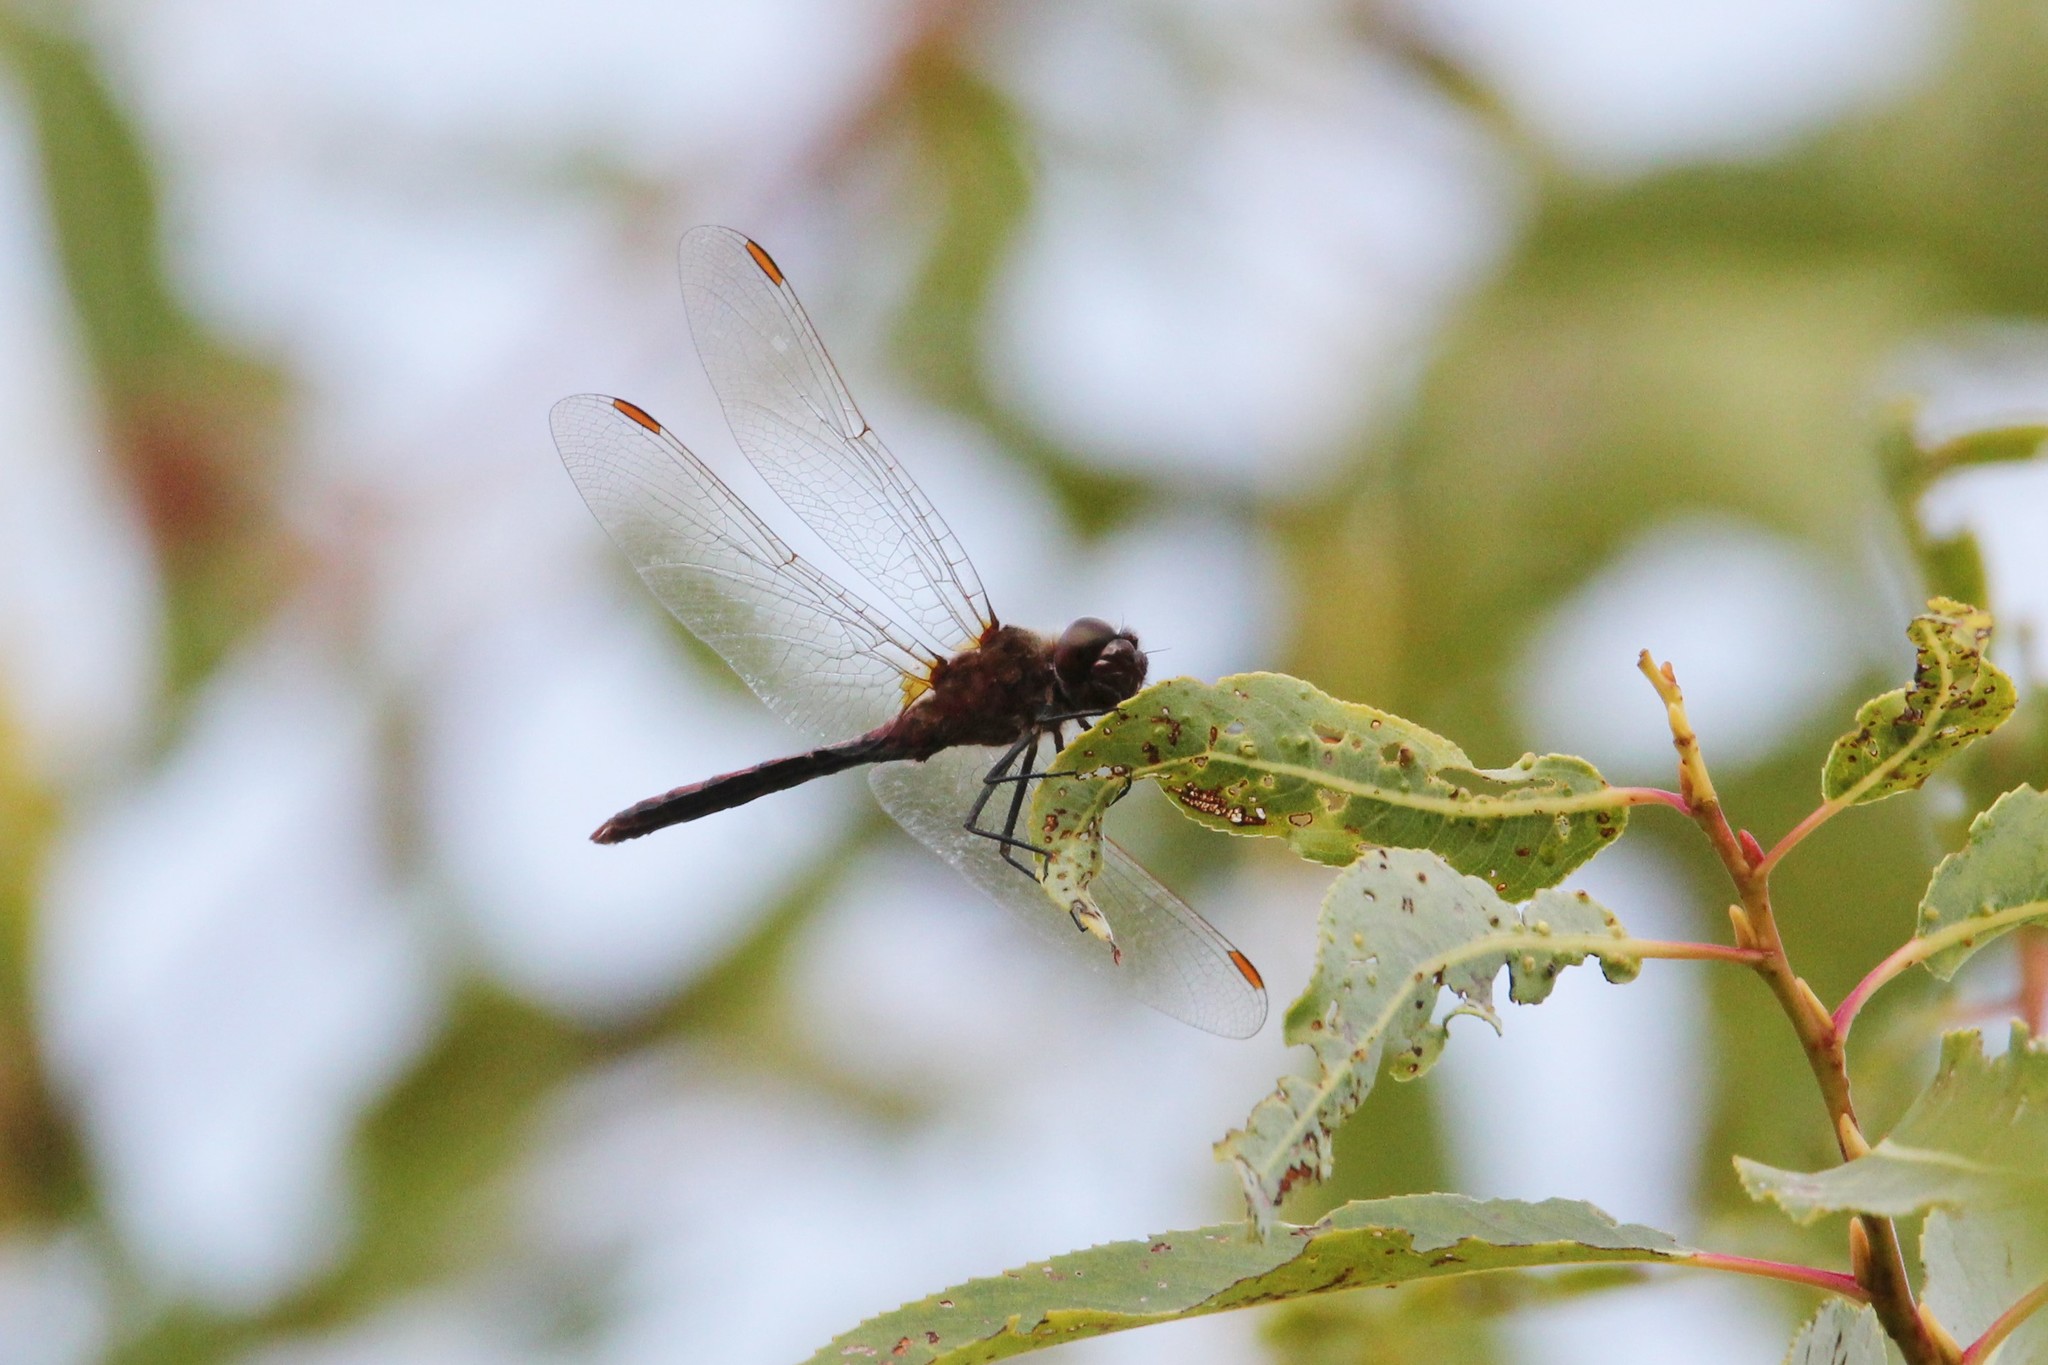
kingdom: Animalia
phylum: Arthropoda
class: Insecta
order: Odonata
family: Libellulidae
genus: Sympetrum
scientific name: Sympetrum costiferum
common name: Saffron-winged meadowhawk
